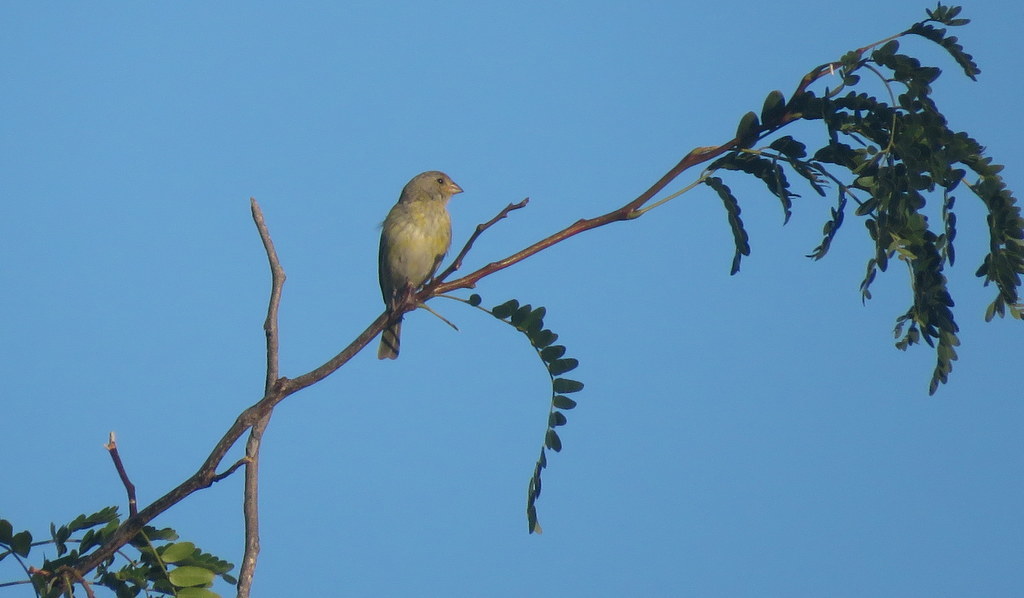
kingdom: Animalia
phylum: Chordata
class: Aves
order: Passeriformes
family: Thraupidae
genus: Sicalis
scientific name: Sicalis flaveola
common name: Saffron finch
